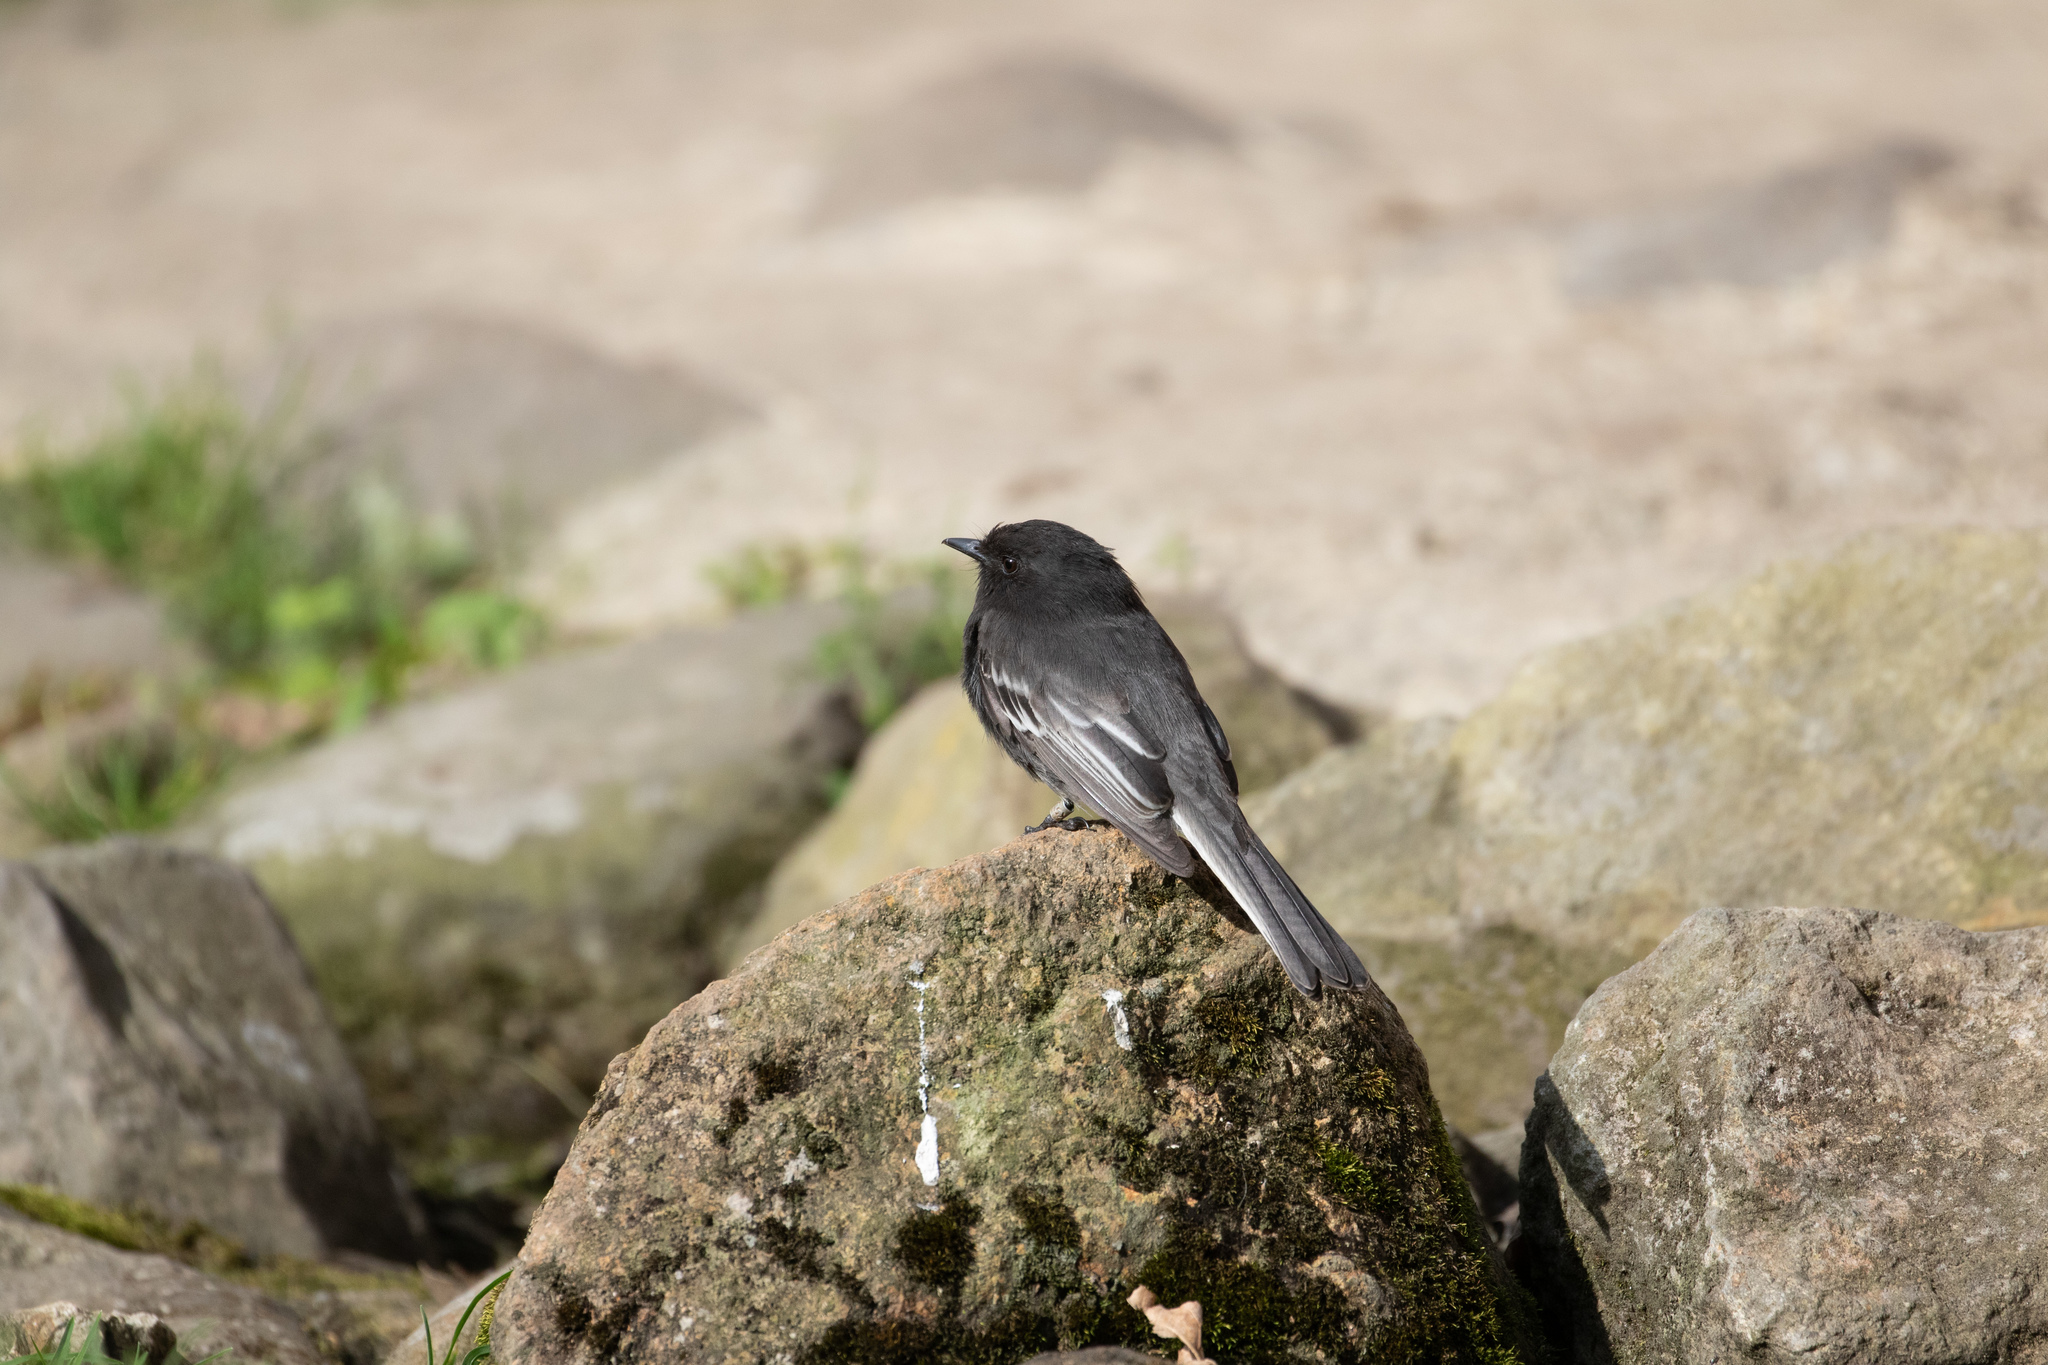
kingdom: Animalia
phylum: Chordata
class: Aves
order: Passeriformes
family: Tyrannidae
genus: Sayornis
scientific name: Sayornis nigricans
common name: Black phoebe
